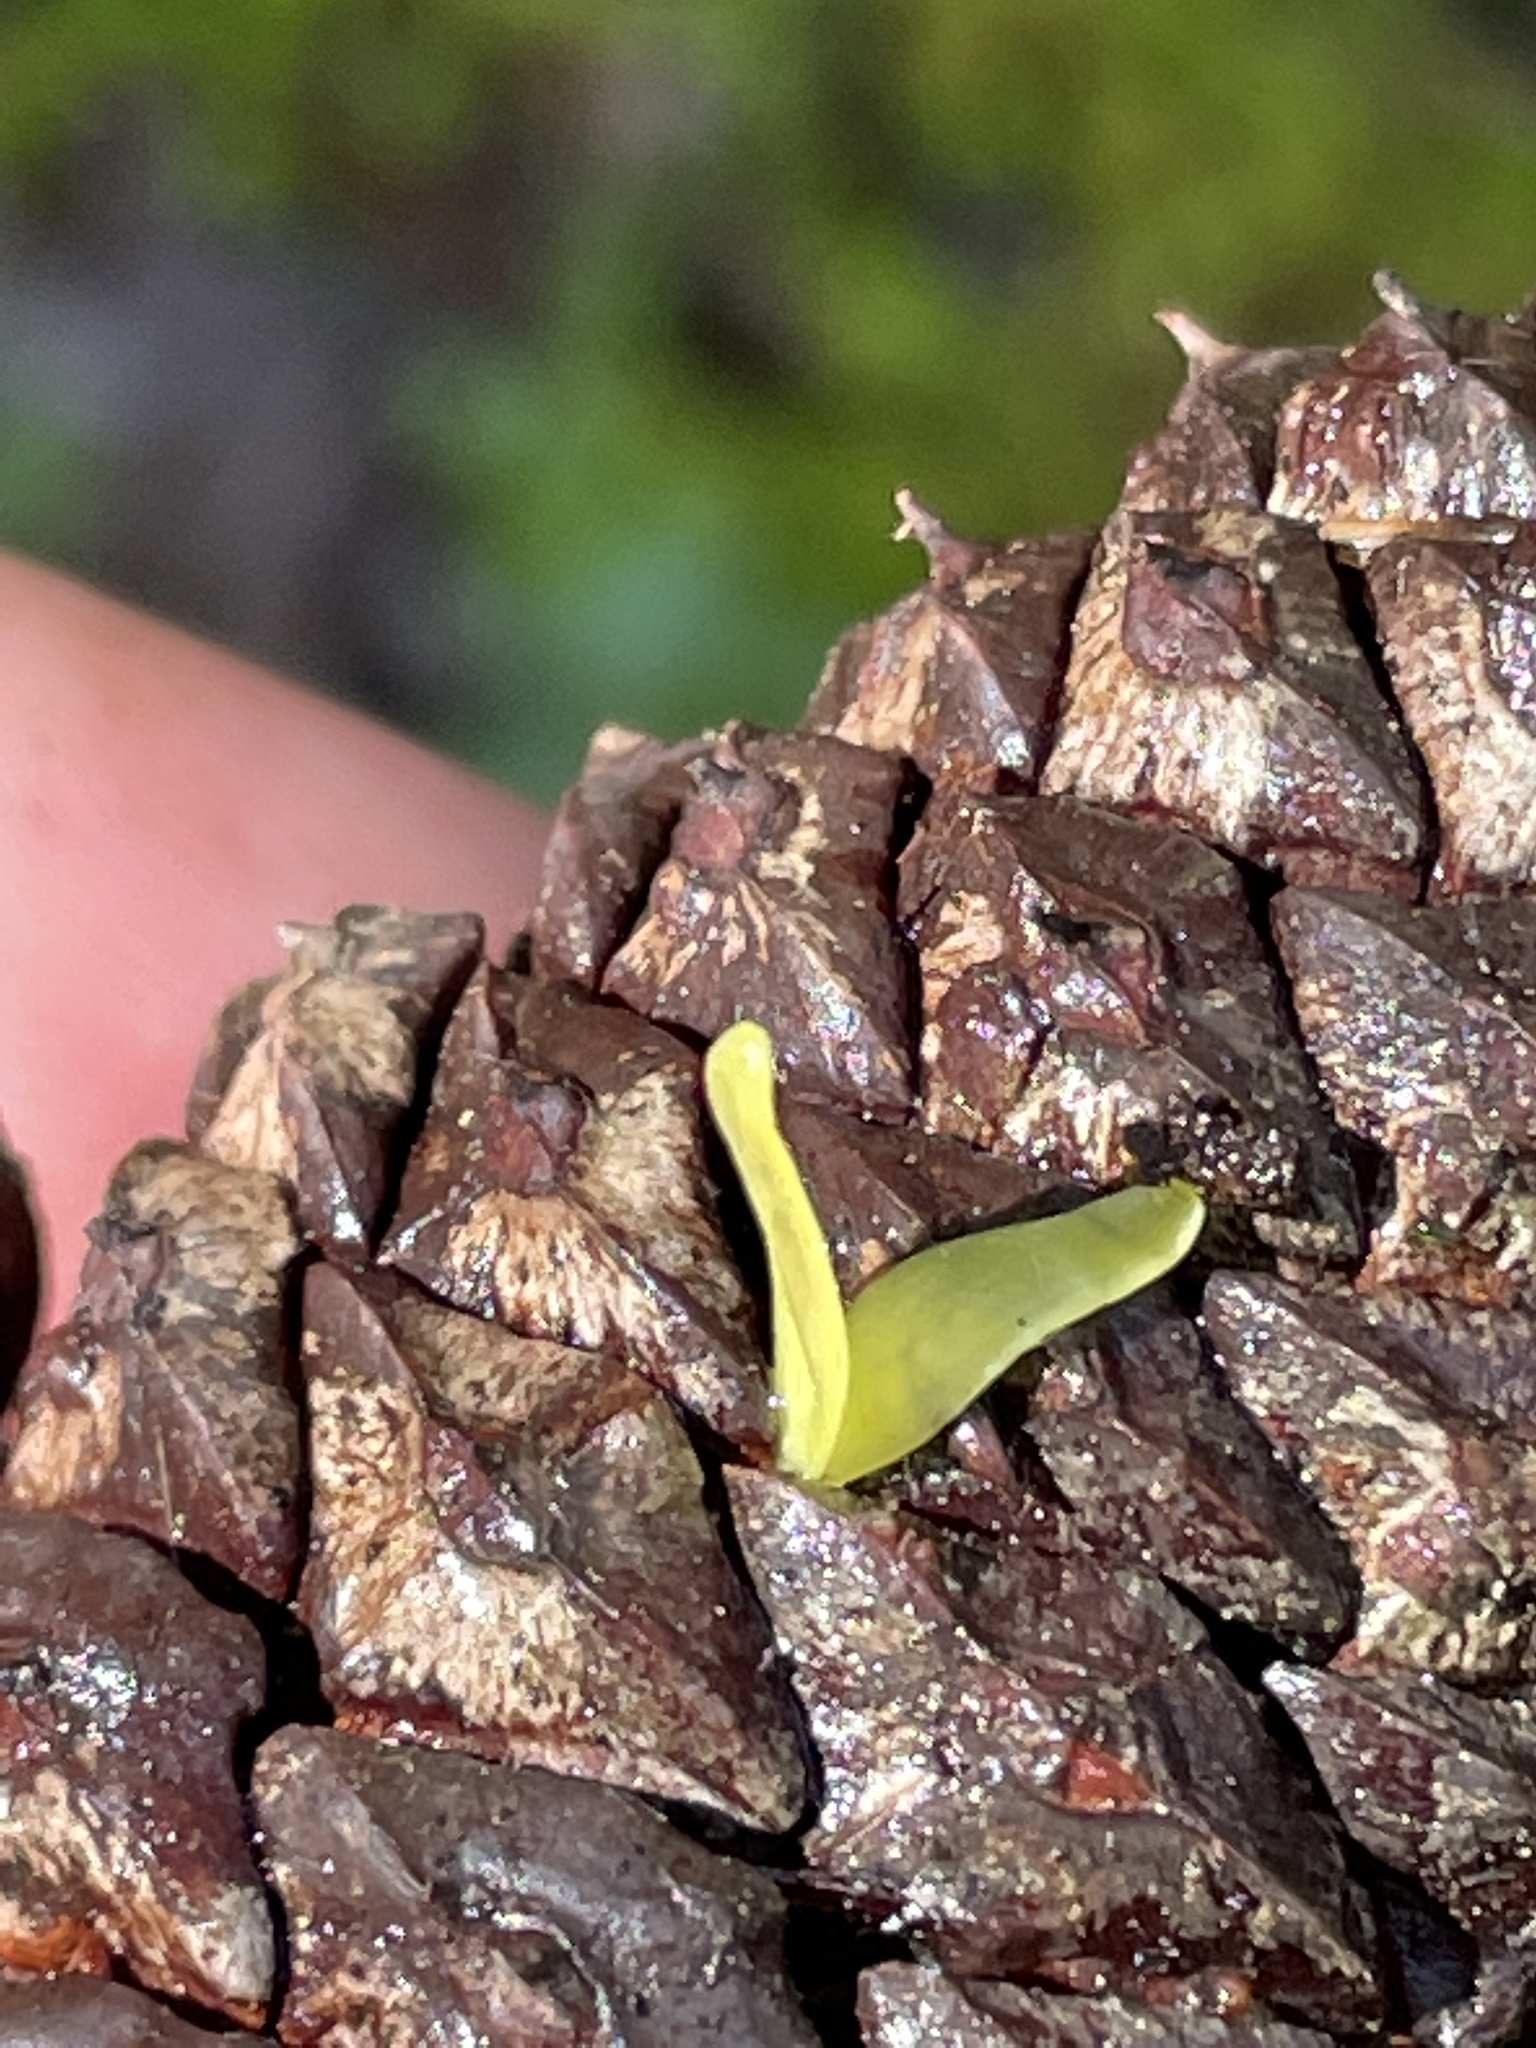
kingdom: Plantae
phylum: Tracheophyta
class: Pinopsida
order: Pinales
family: Pinaceae
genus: Pinus
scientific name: Pinus rigida
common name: Pitch pine
